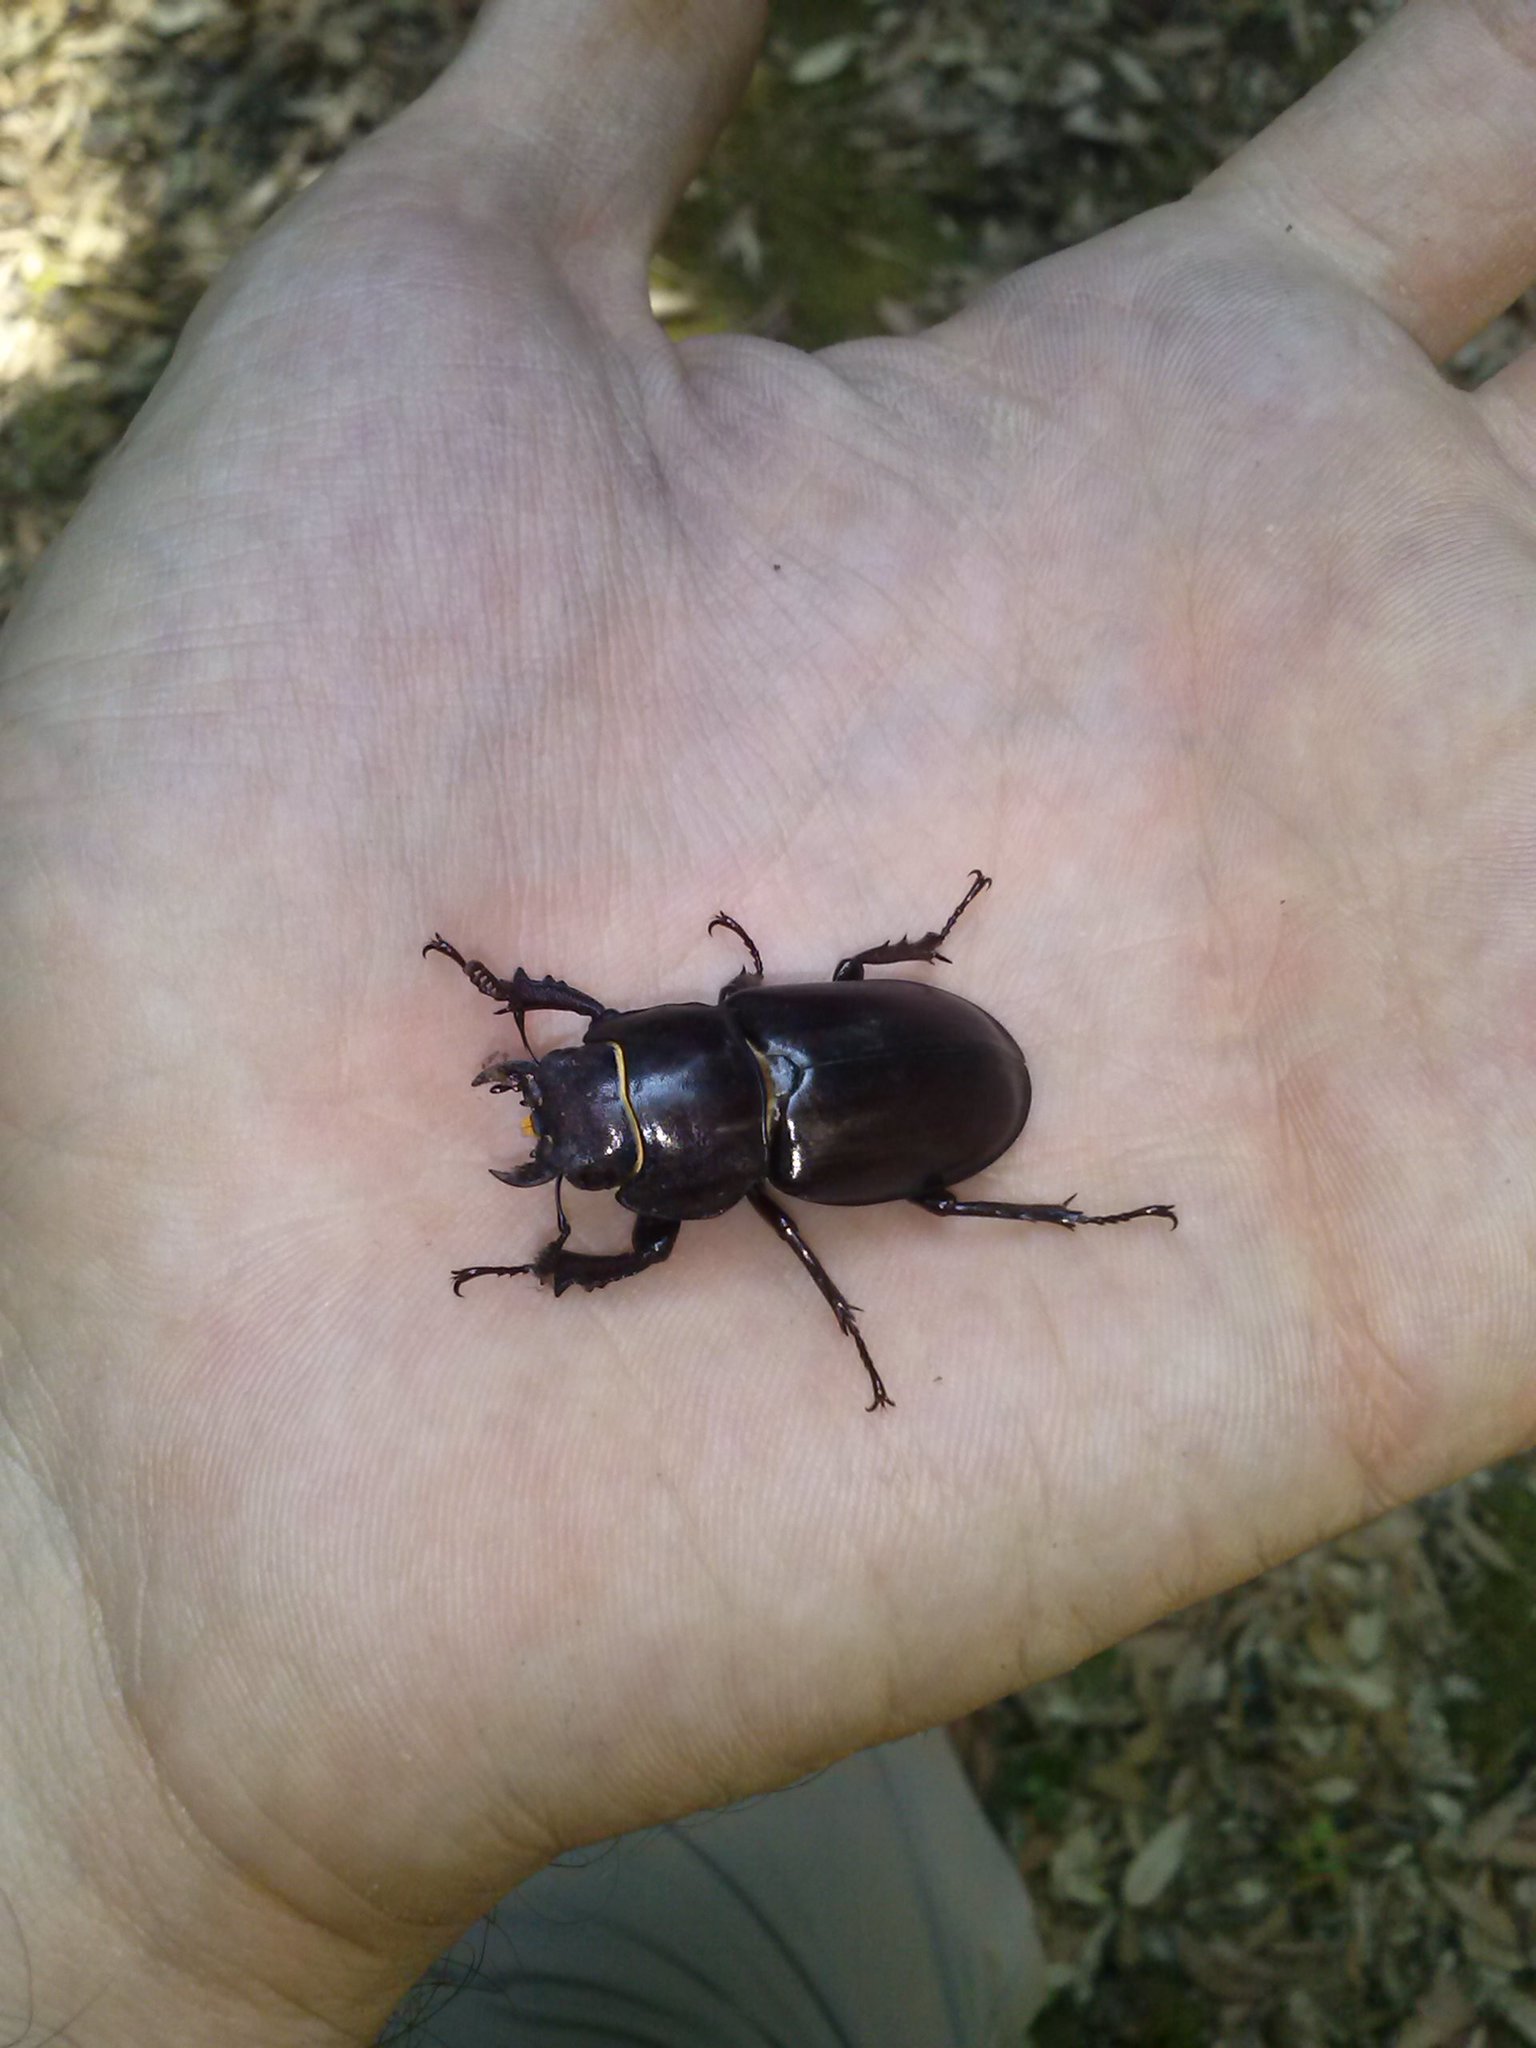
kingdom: Animalia
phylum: Arthropoda
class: Insecta
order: Coleoptera
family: Lucanidae
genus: Lucanus
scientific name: Lucanus tetraodon
